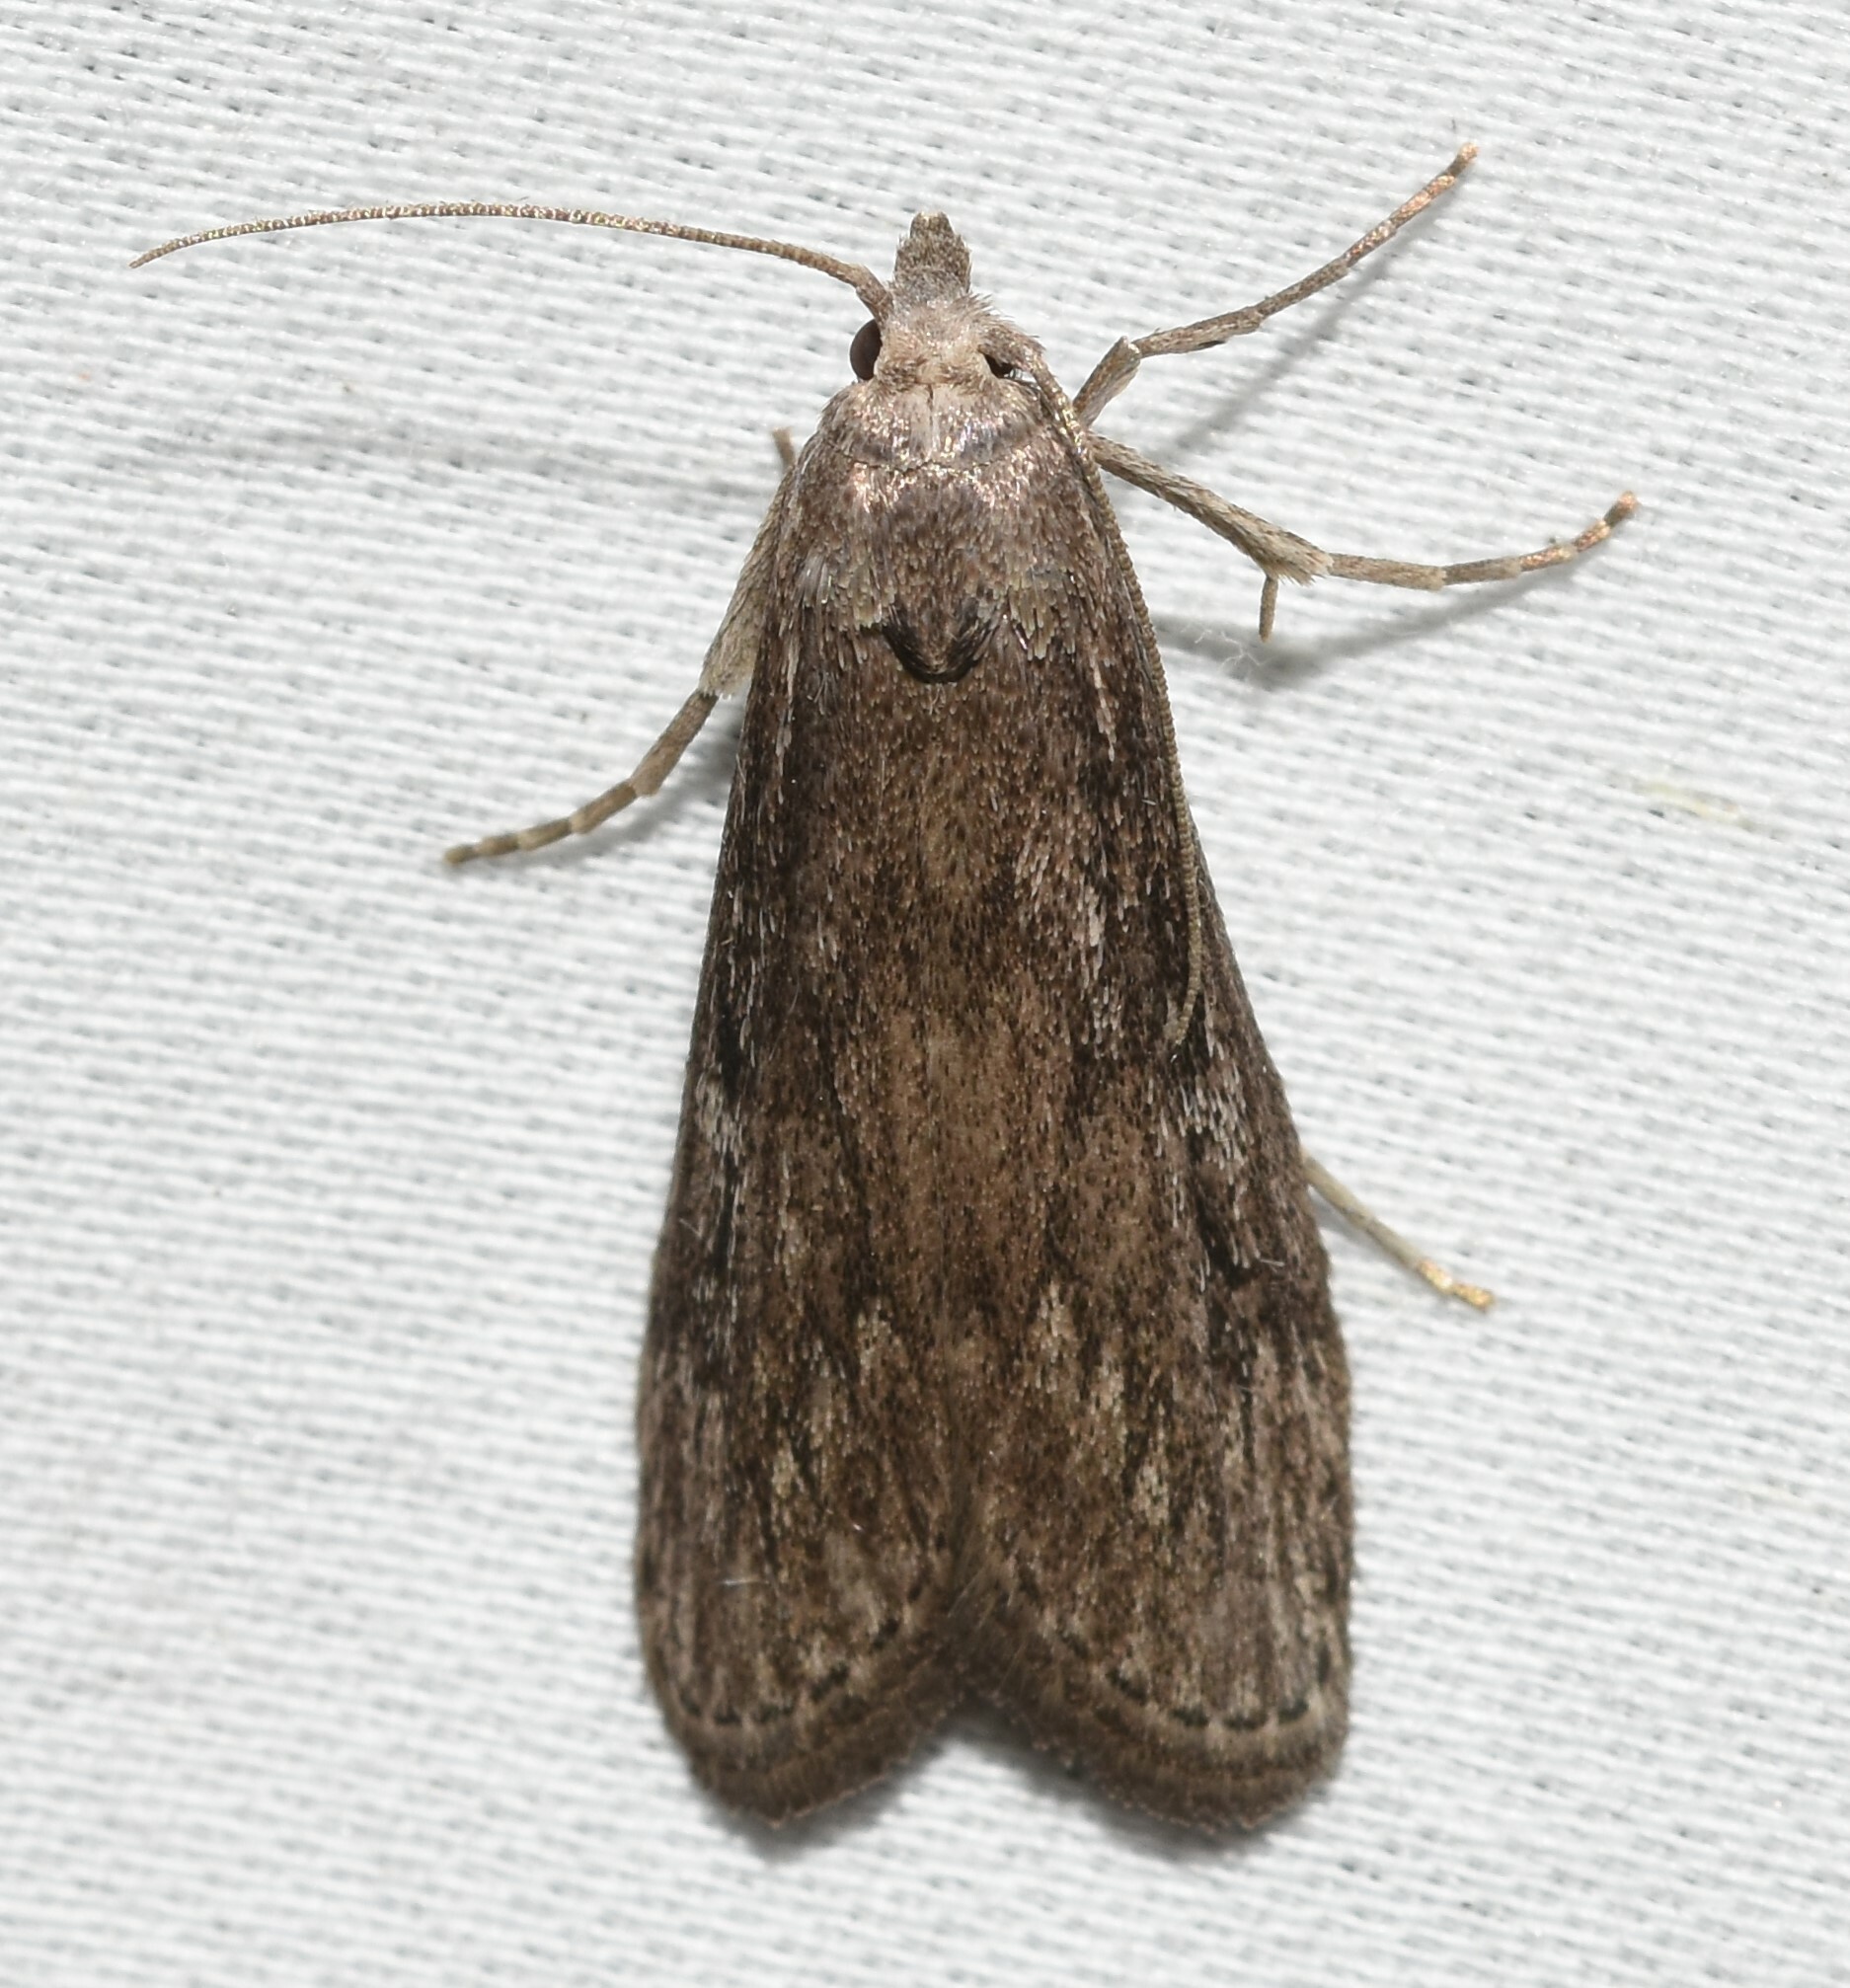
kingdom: Animalia
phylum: Arthropoda
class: Insecta
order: Lepidoptera
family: Pyralidae
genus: Aphomia
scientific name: Aphomia terrenella
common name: Terrenella bee moth
